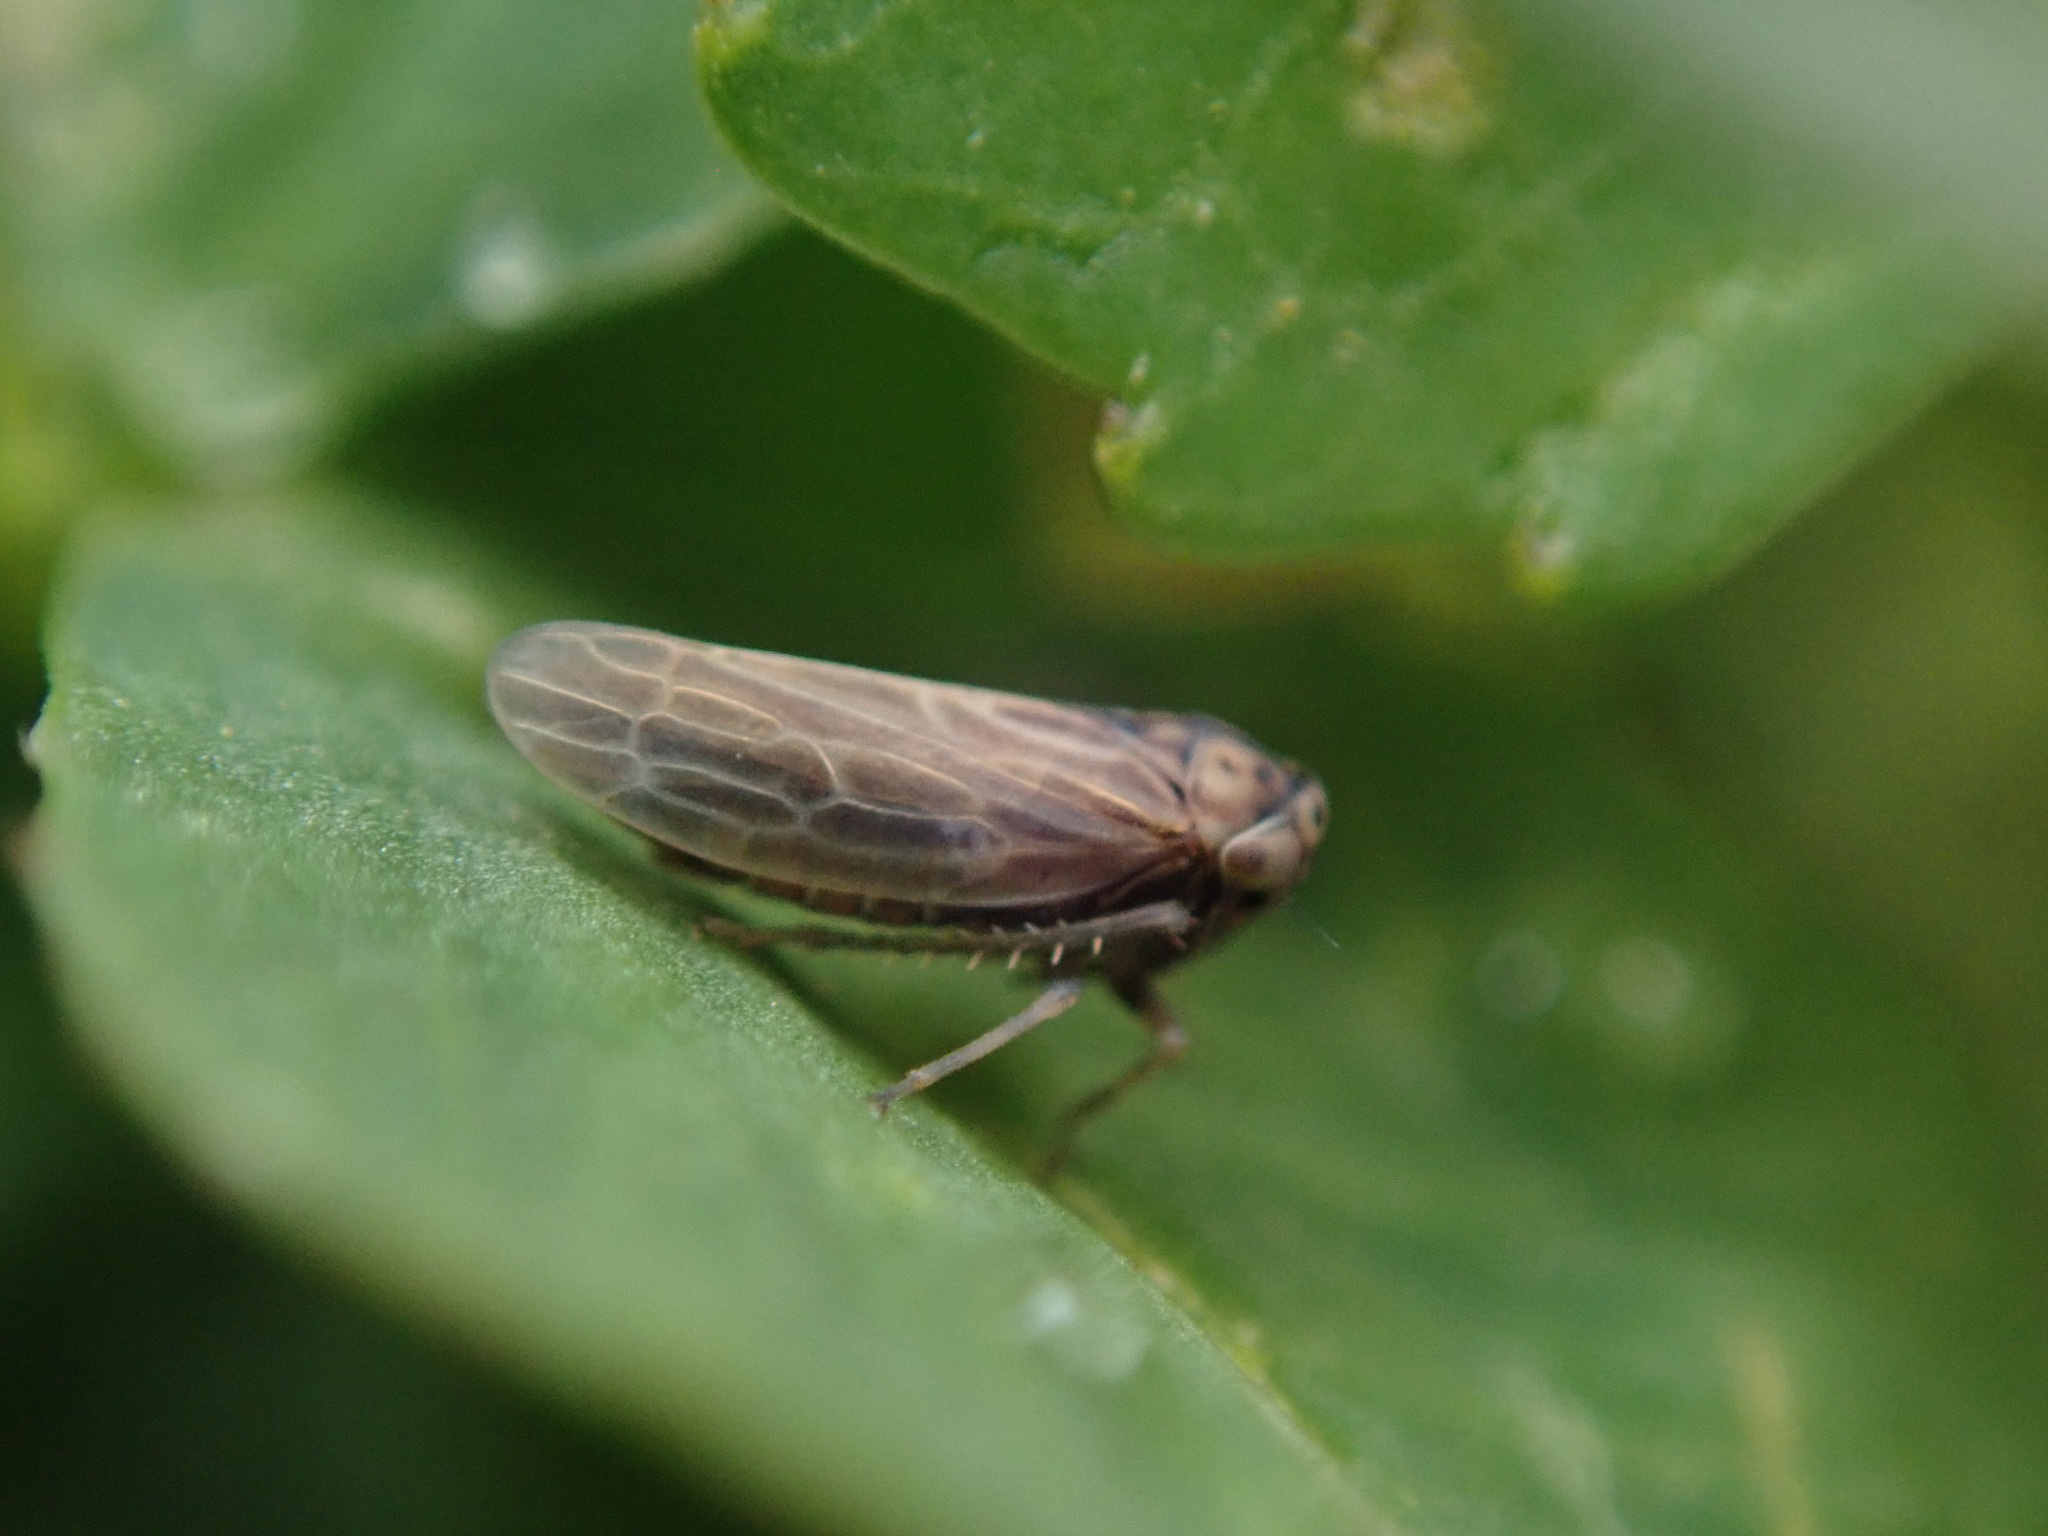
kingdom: Animalia
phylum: Arthropoda
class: Insecta
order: Hemiptera
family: Cicadellidae
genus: Agallia
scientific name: Agallia constricta
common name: The constricted leafhopper
